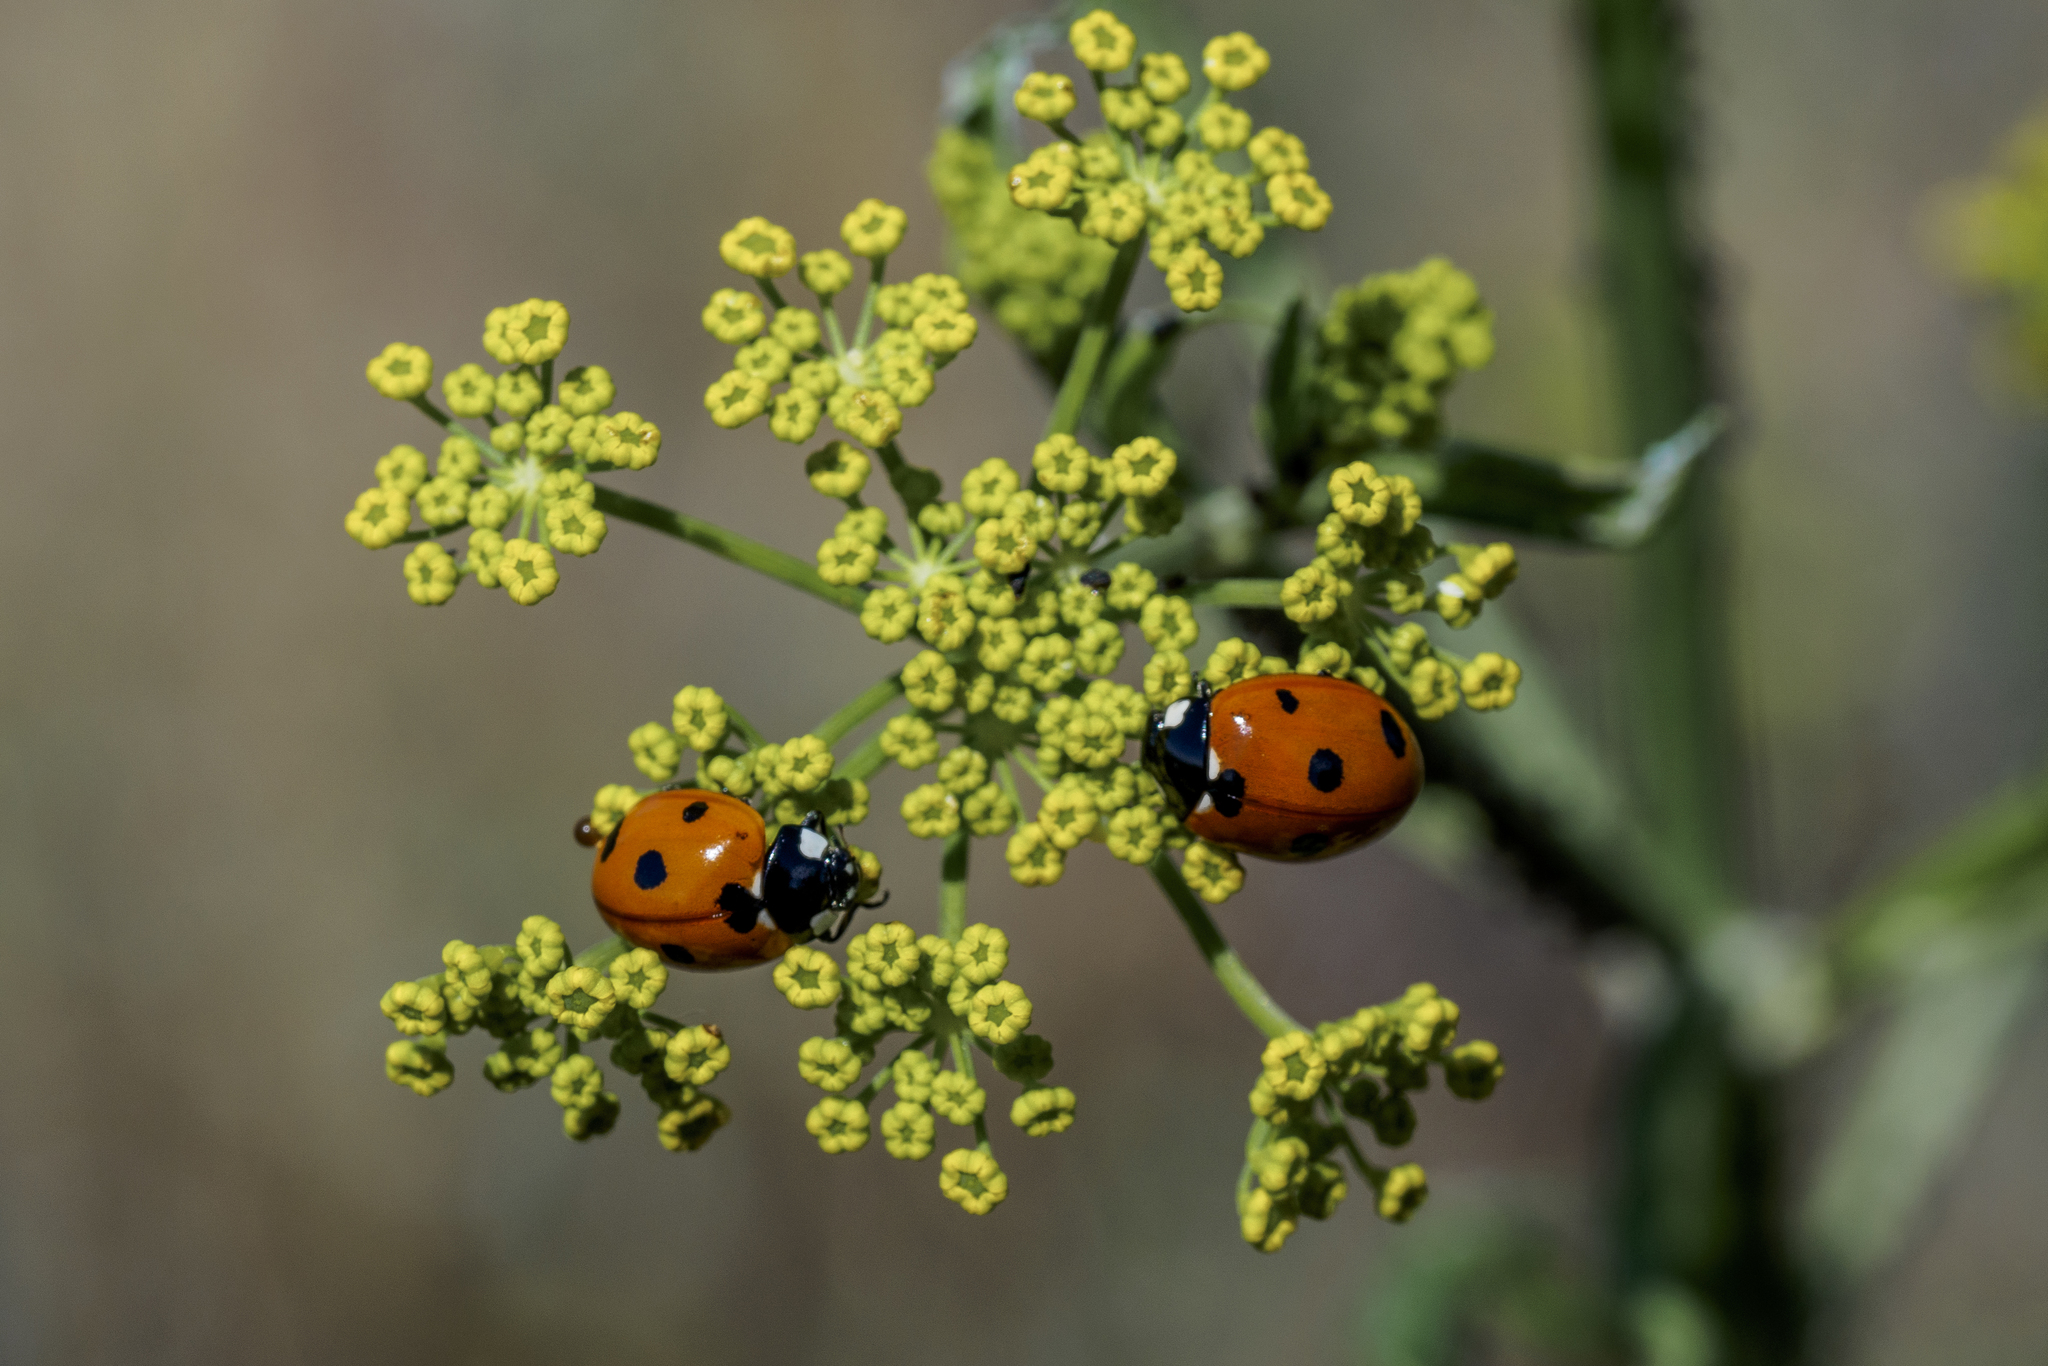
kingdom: Animalia
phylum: Arthropoda
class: Insecta
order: Coleoptera
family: Coccinellidae
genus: Coccinella
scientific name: Coccinella septempunctata
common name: Sevenspotted lady beetle
